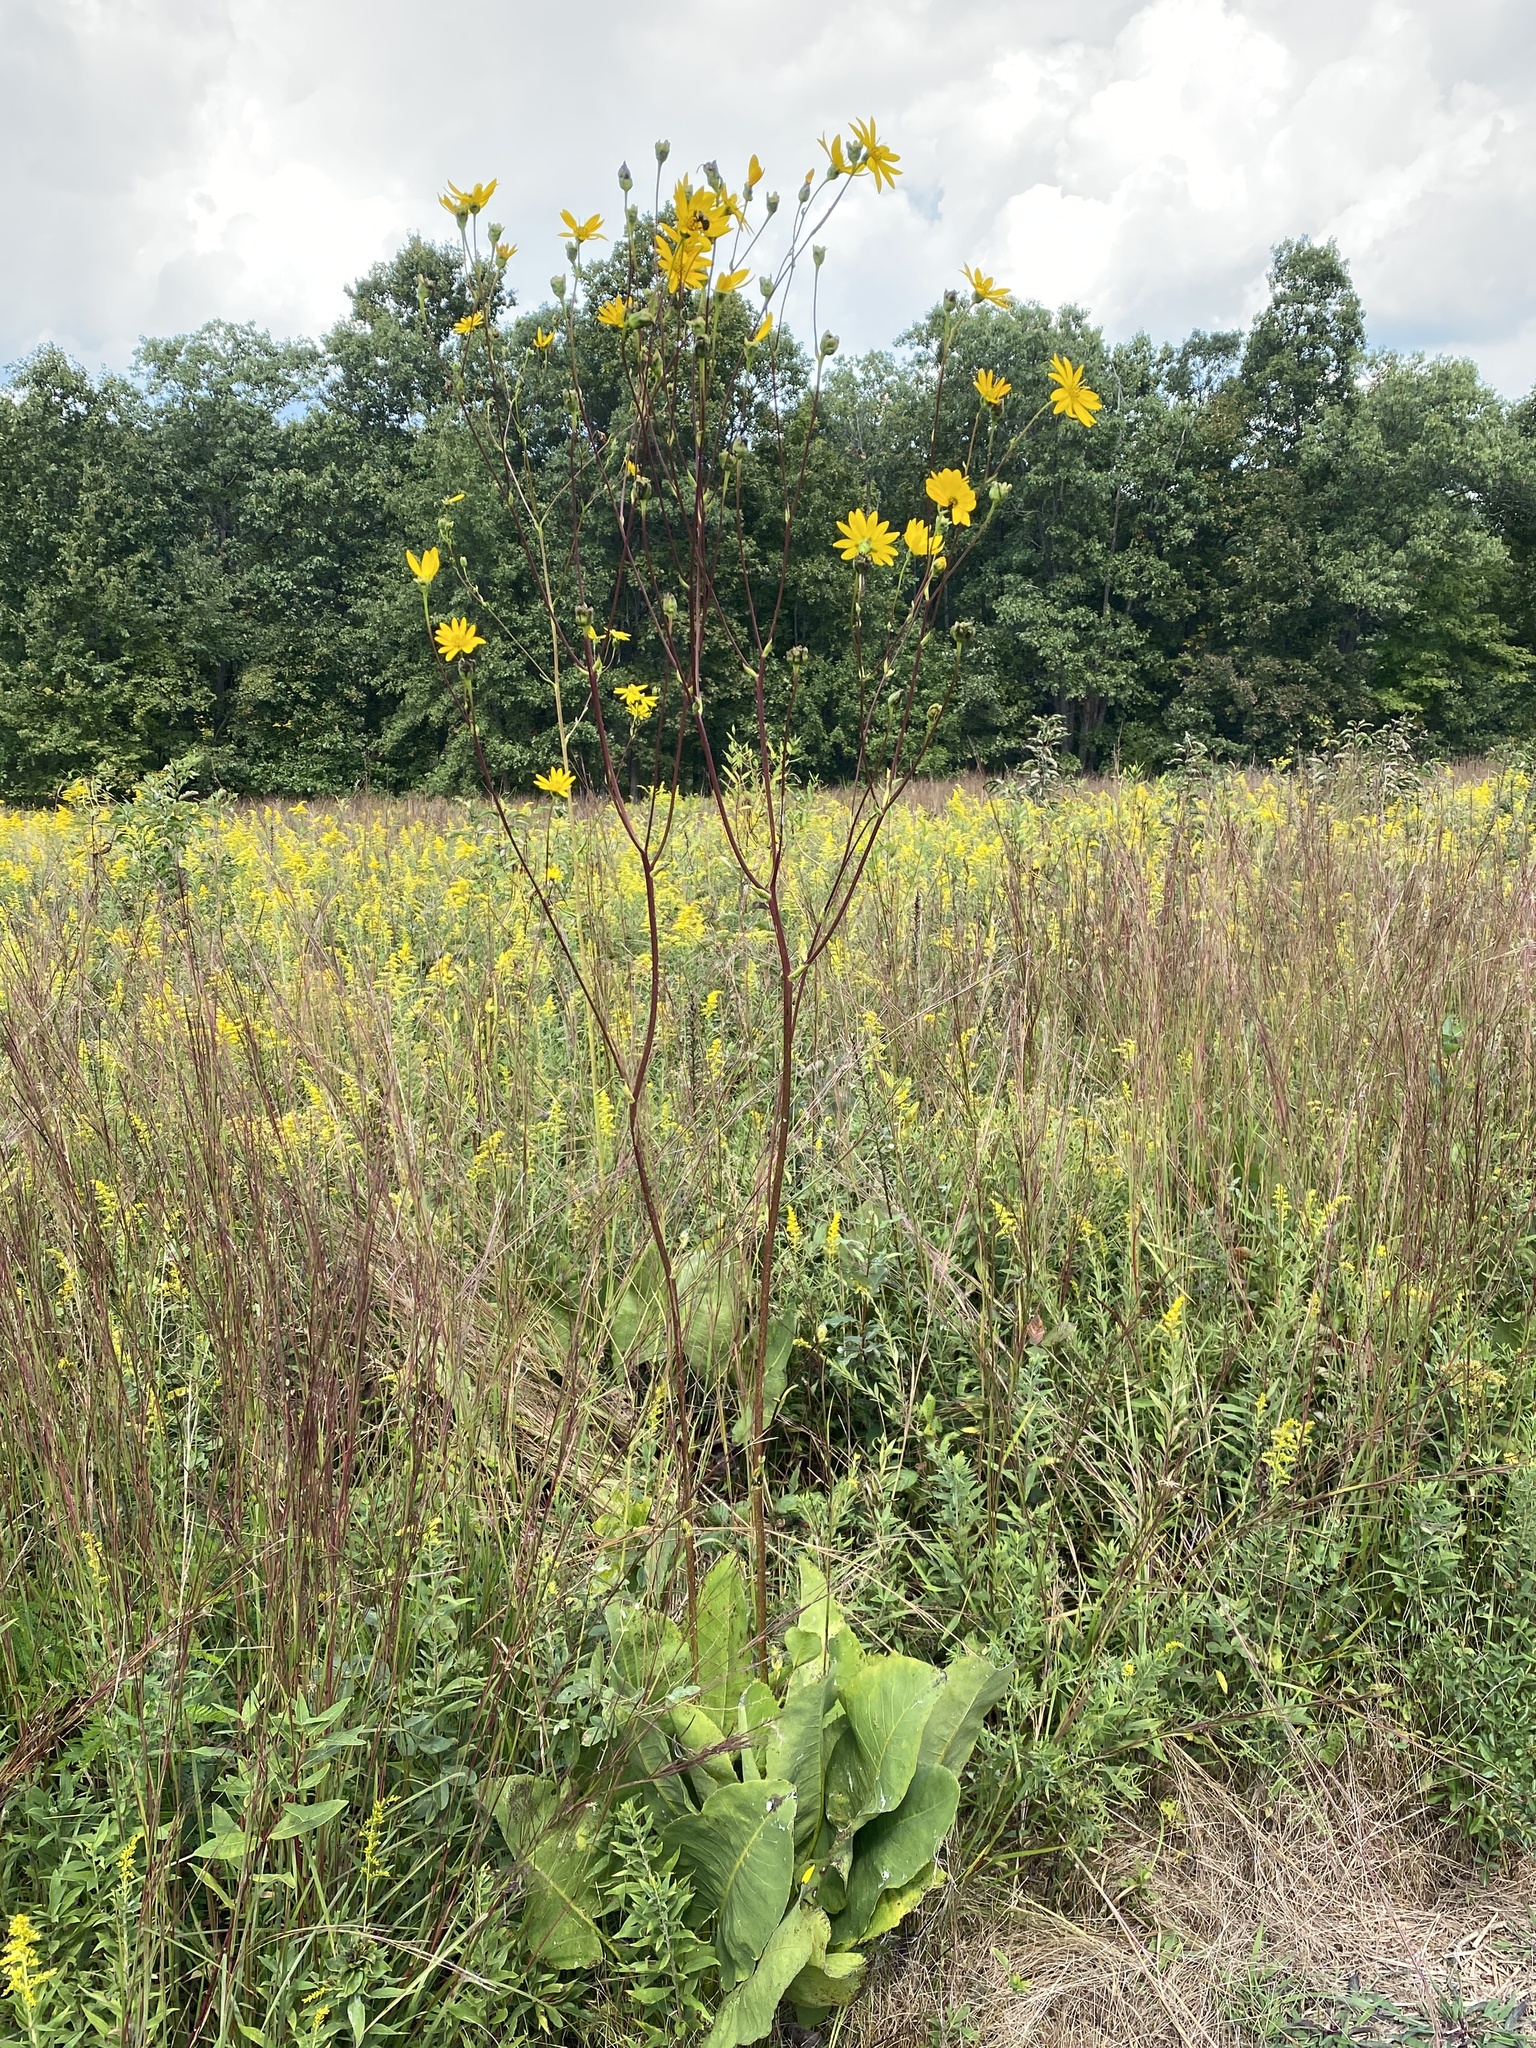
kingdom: Plantae
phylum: Tracheophyta
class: Magnoliopsida
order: Asterales
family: Asteraceae
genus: Silphium
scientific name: Silphium terebinthinaceum
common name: Basal-leaf rosinweed
